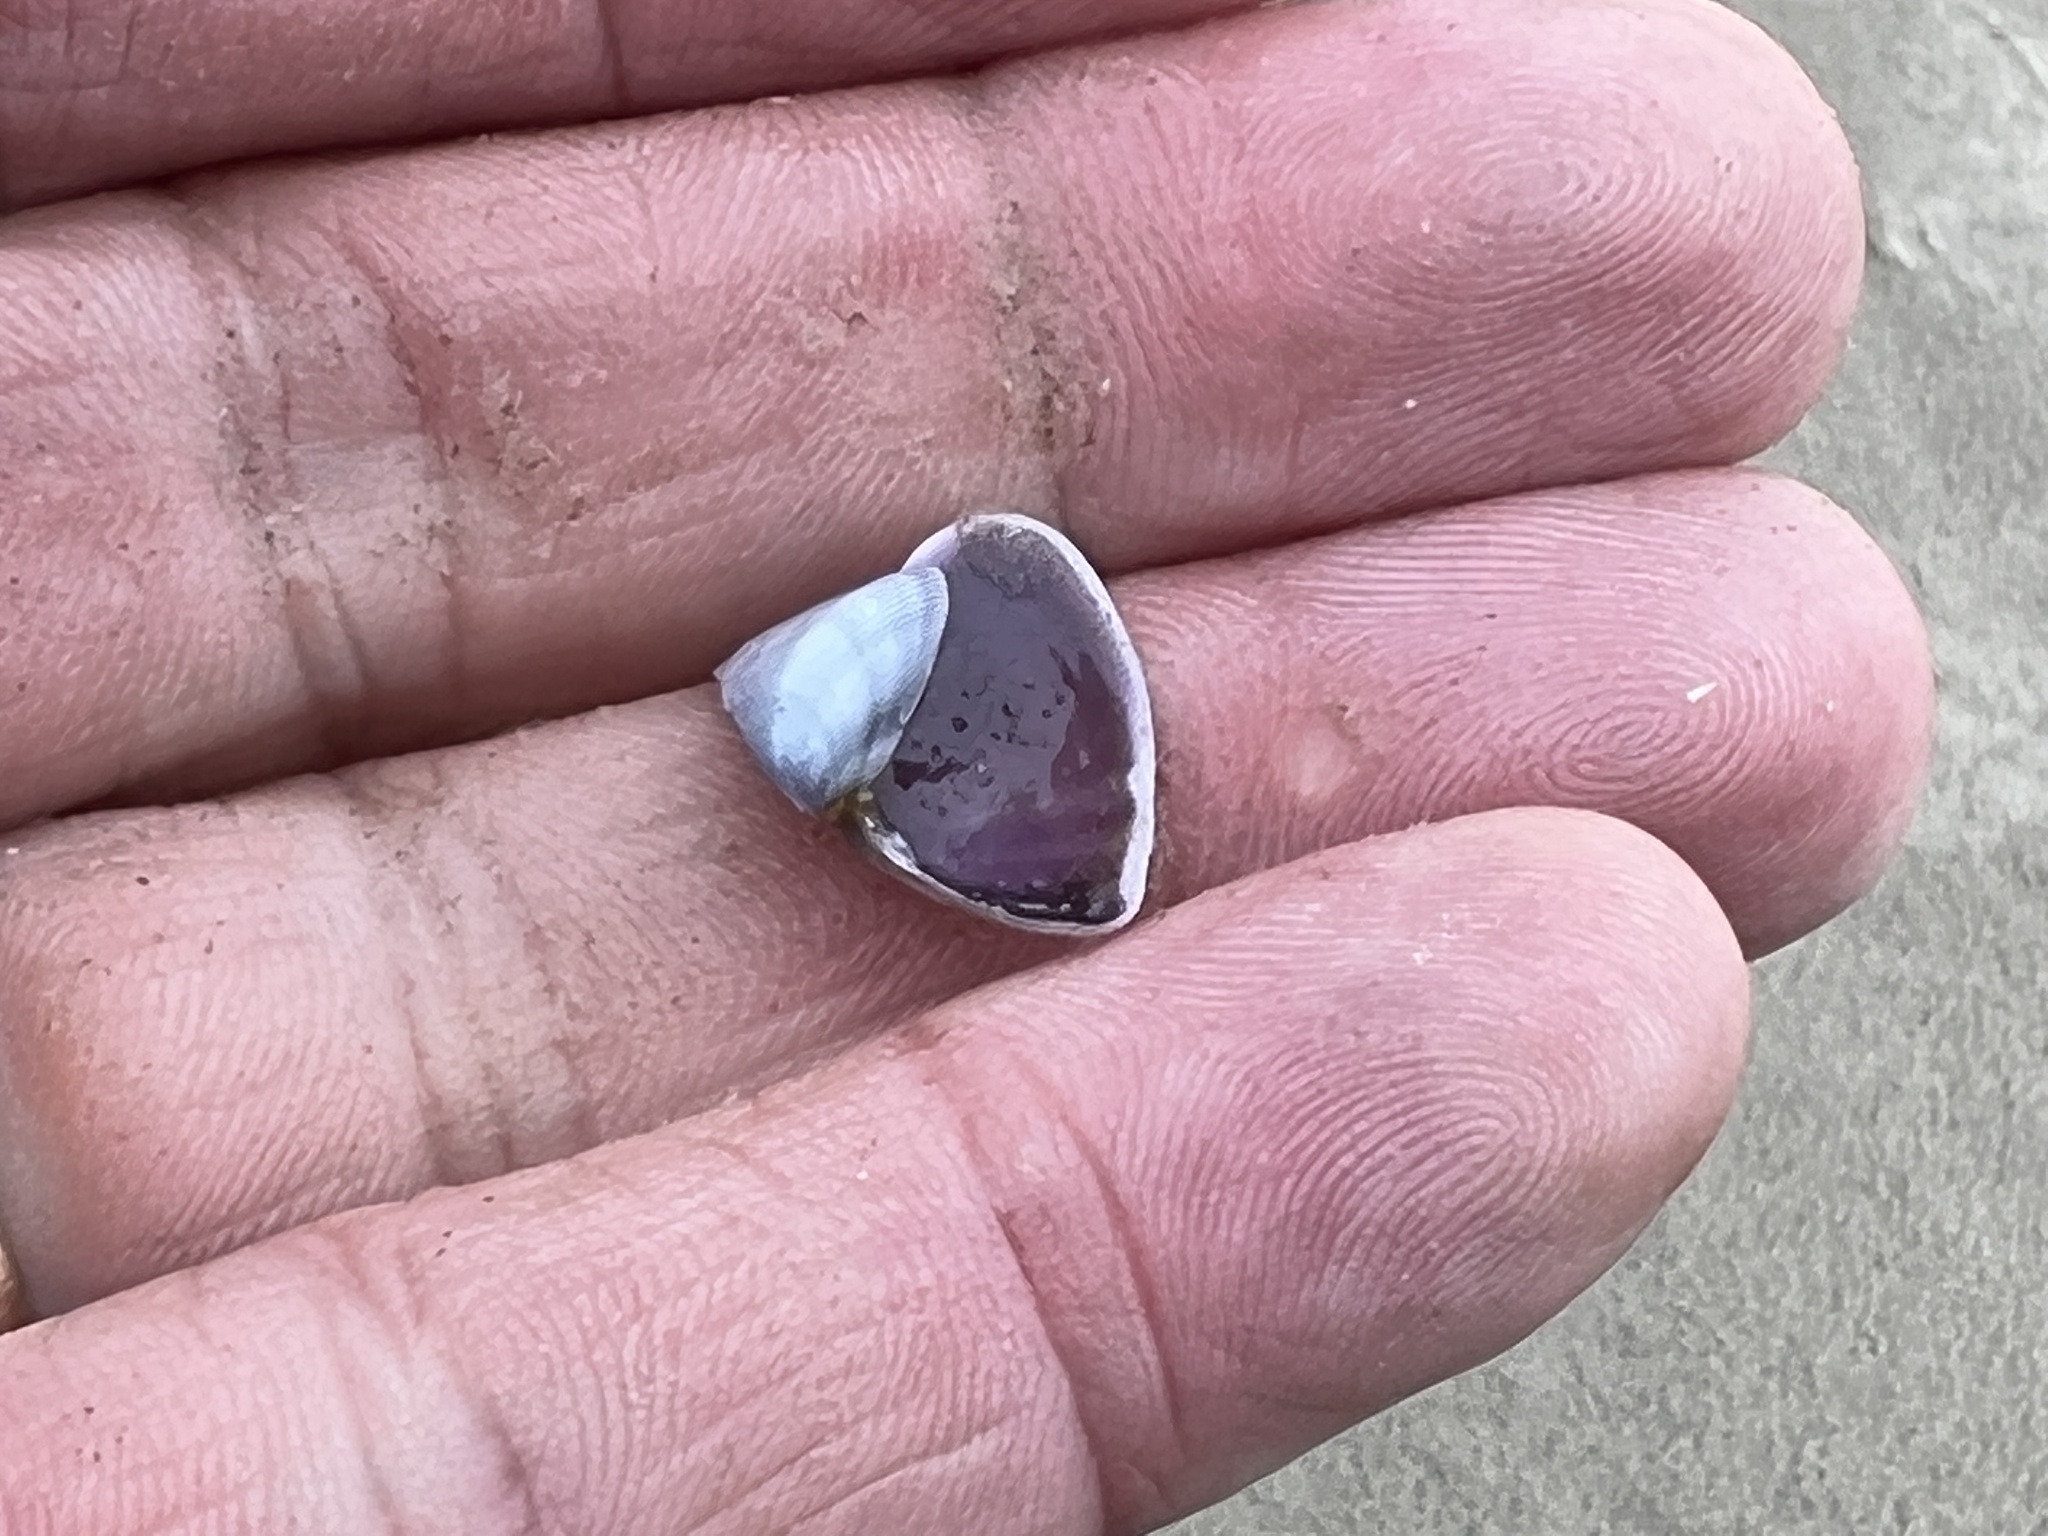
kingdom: Animalia
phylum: Mollusca
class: Bivalvia
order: Cardiida
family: Donacidae
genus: Donax
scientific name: Donax variabilis
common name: Butterfly shell
